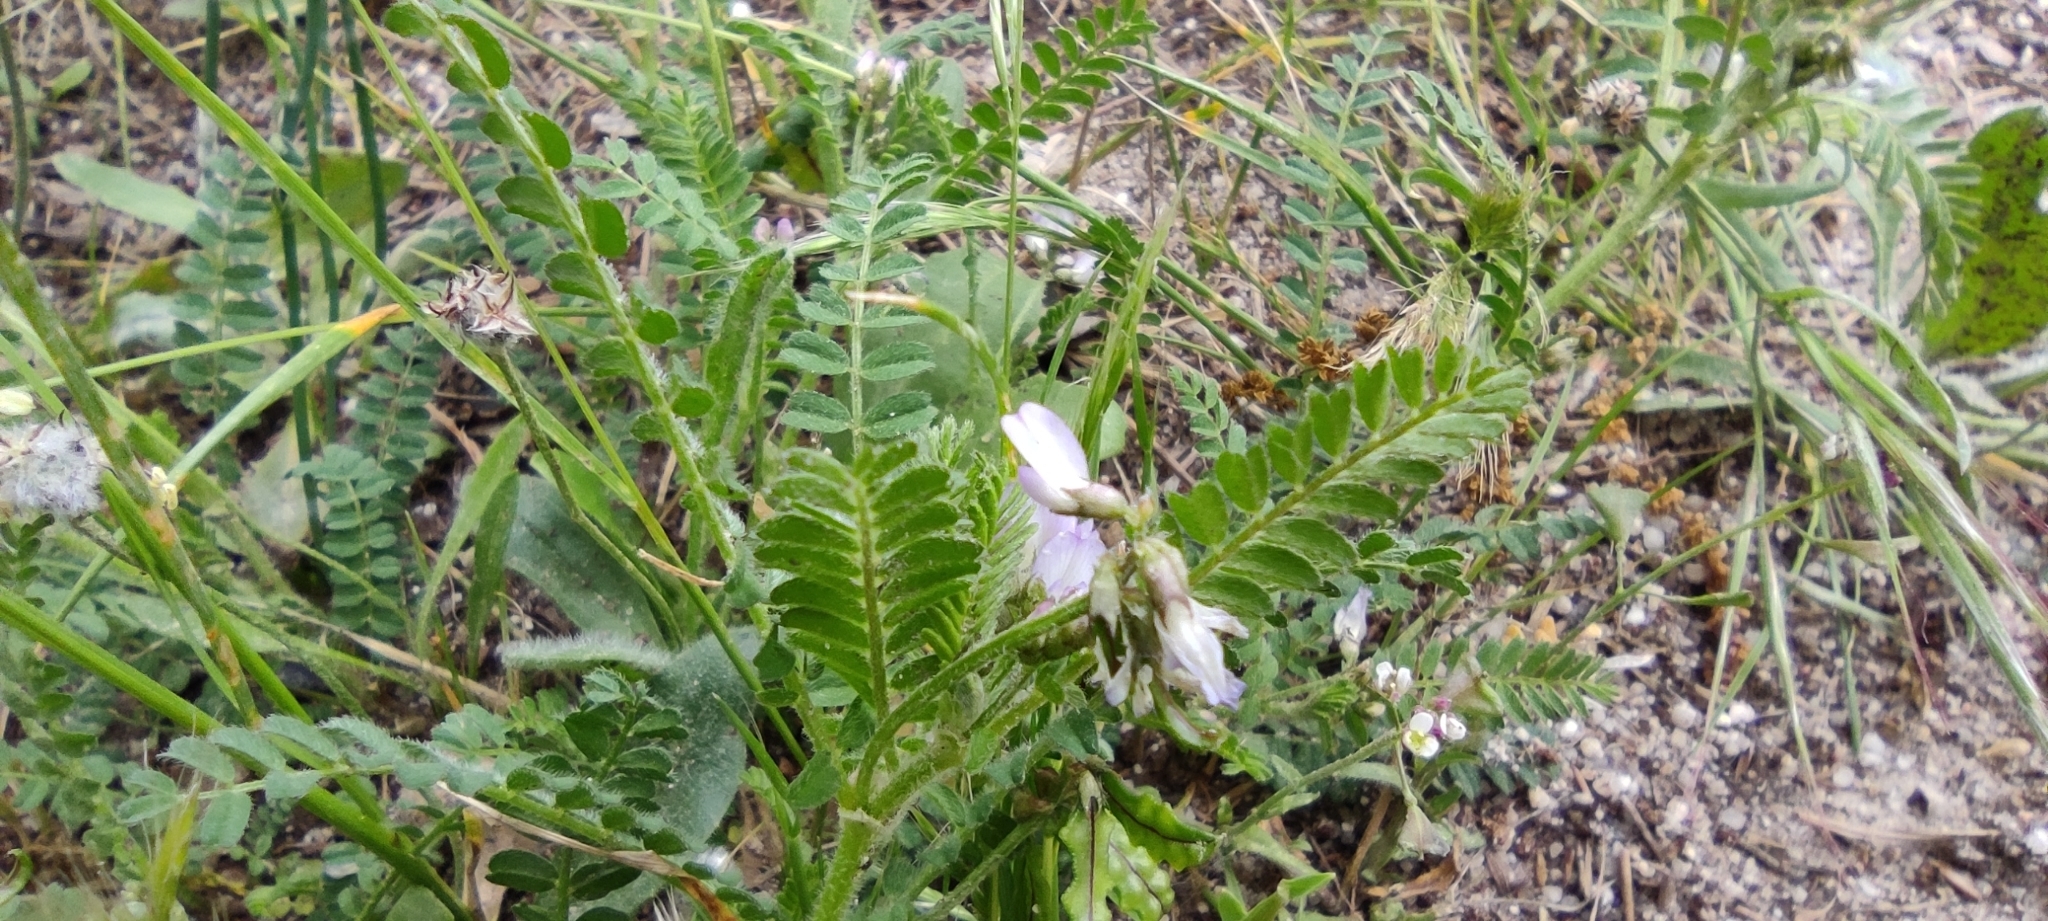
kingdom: Plantae
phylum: Tracheophyta
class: Magnoliopsida
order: Fabales
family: Fabaceae
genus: Biserrula
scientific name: Biserrula pelecinus
